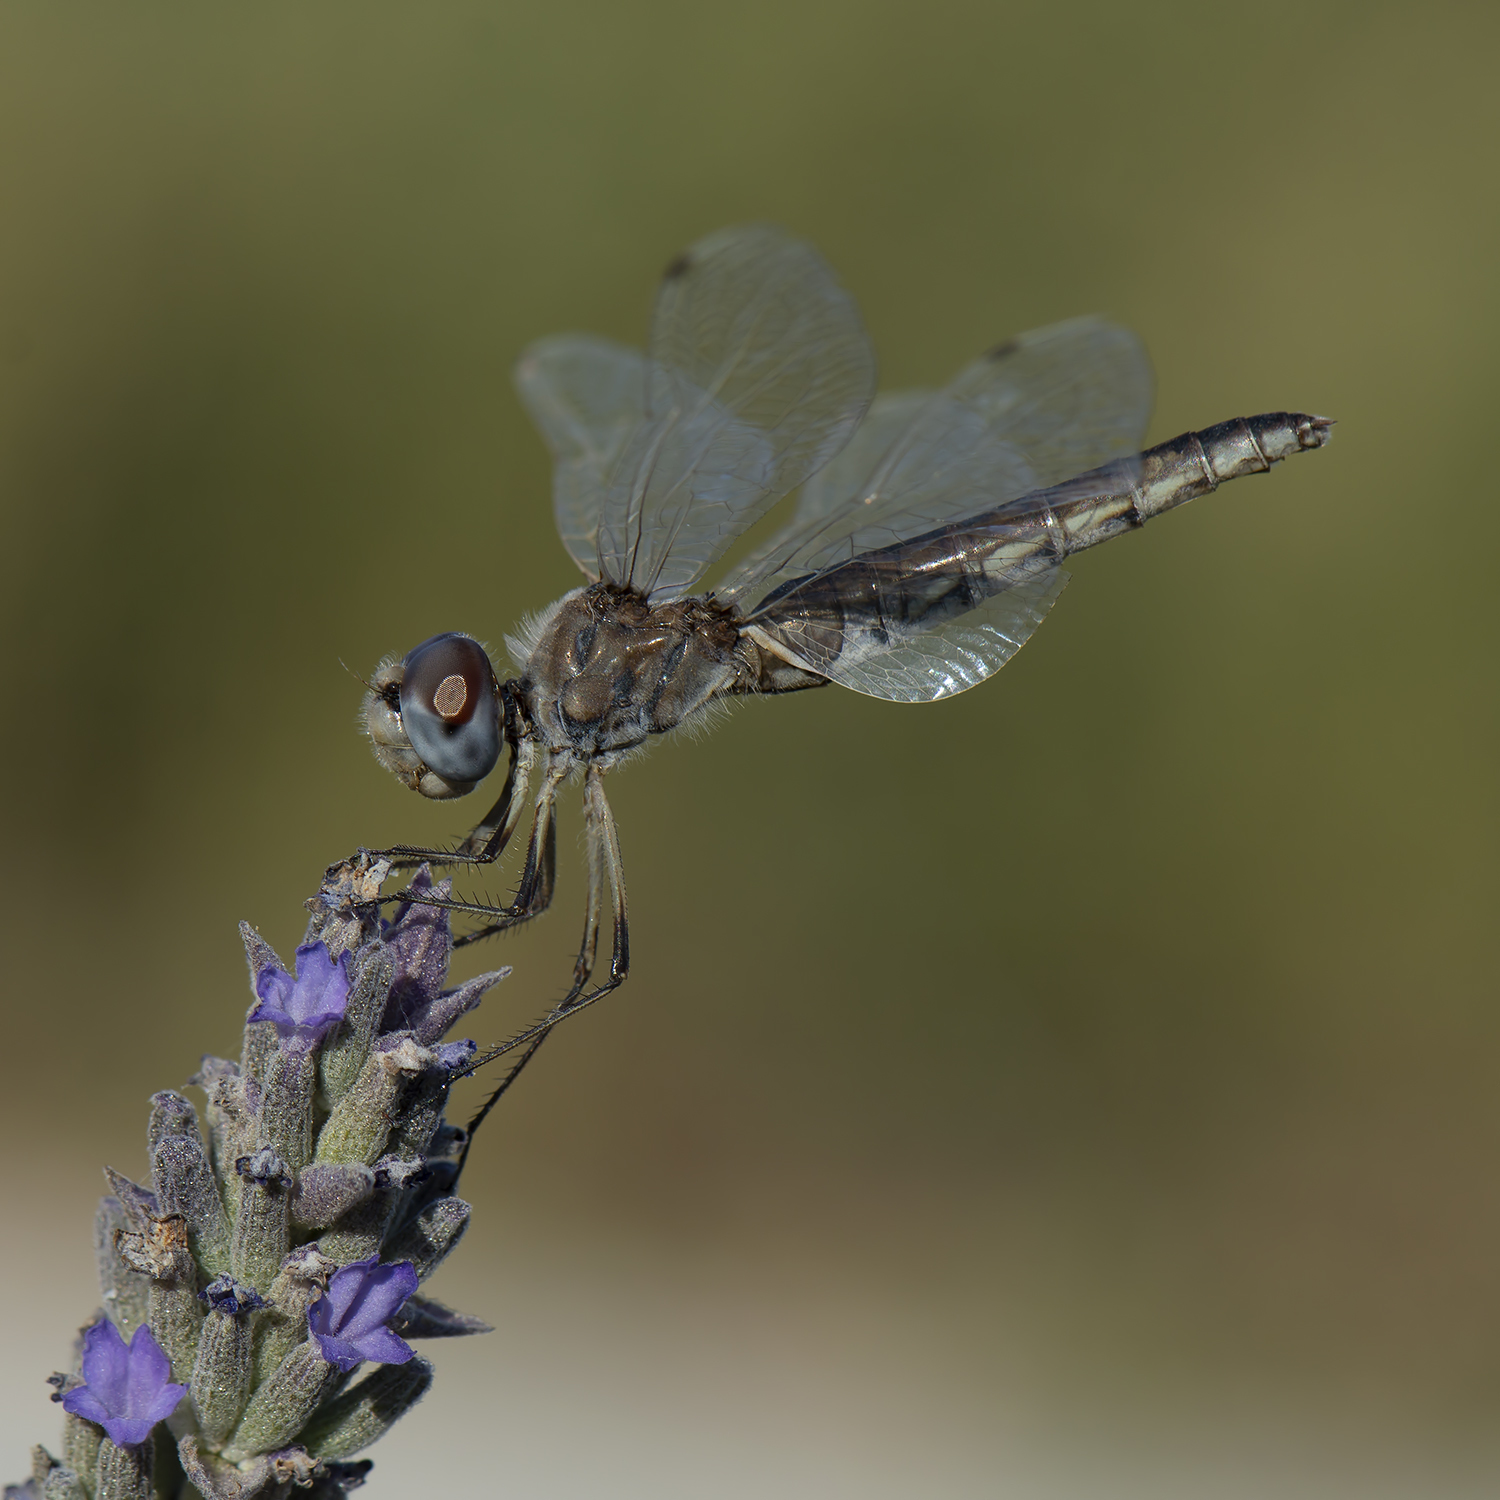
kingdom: Animalia
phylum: Arthropoda
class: Insecta
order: Odonata
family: Libellulidae
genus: Selysiothemis
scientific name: Selysiothemis nigra
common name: Black pennant
